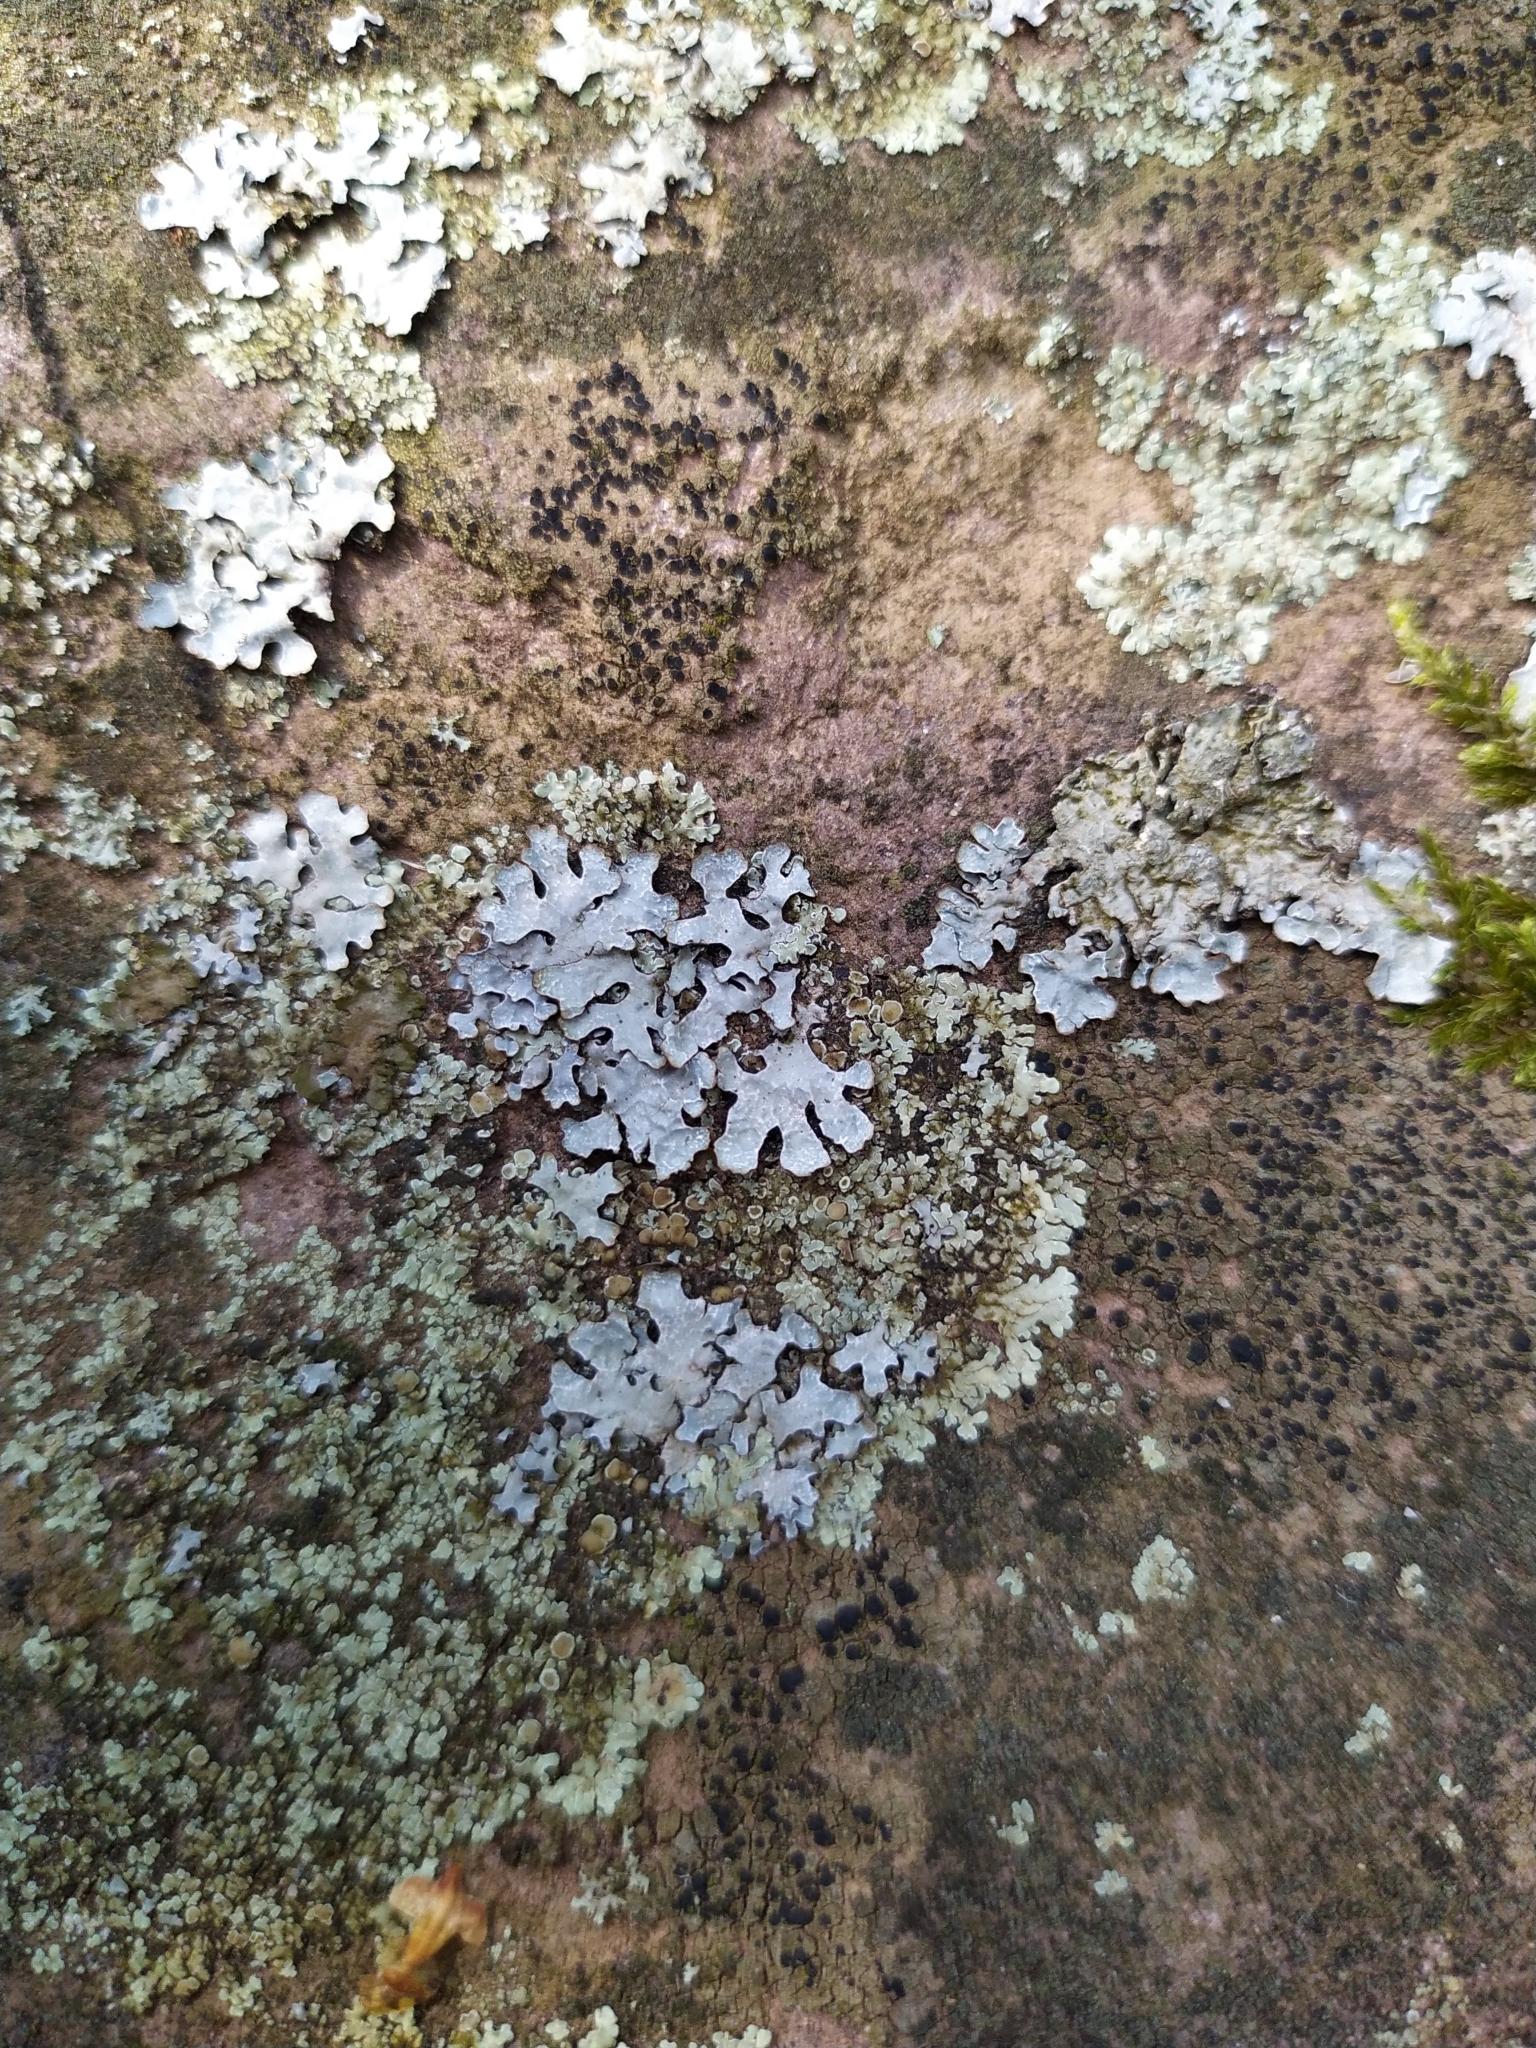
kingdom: Fungi
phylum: Ascomycota
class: Lecanoromycetes
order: Lecanorales
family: Parmeliaceae
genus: Parmelia
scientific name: Parmelia sulcata
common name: Netted shield lichen
